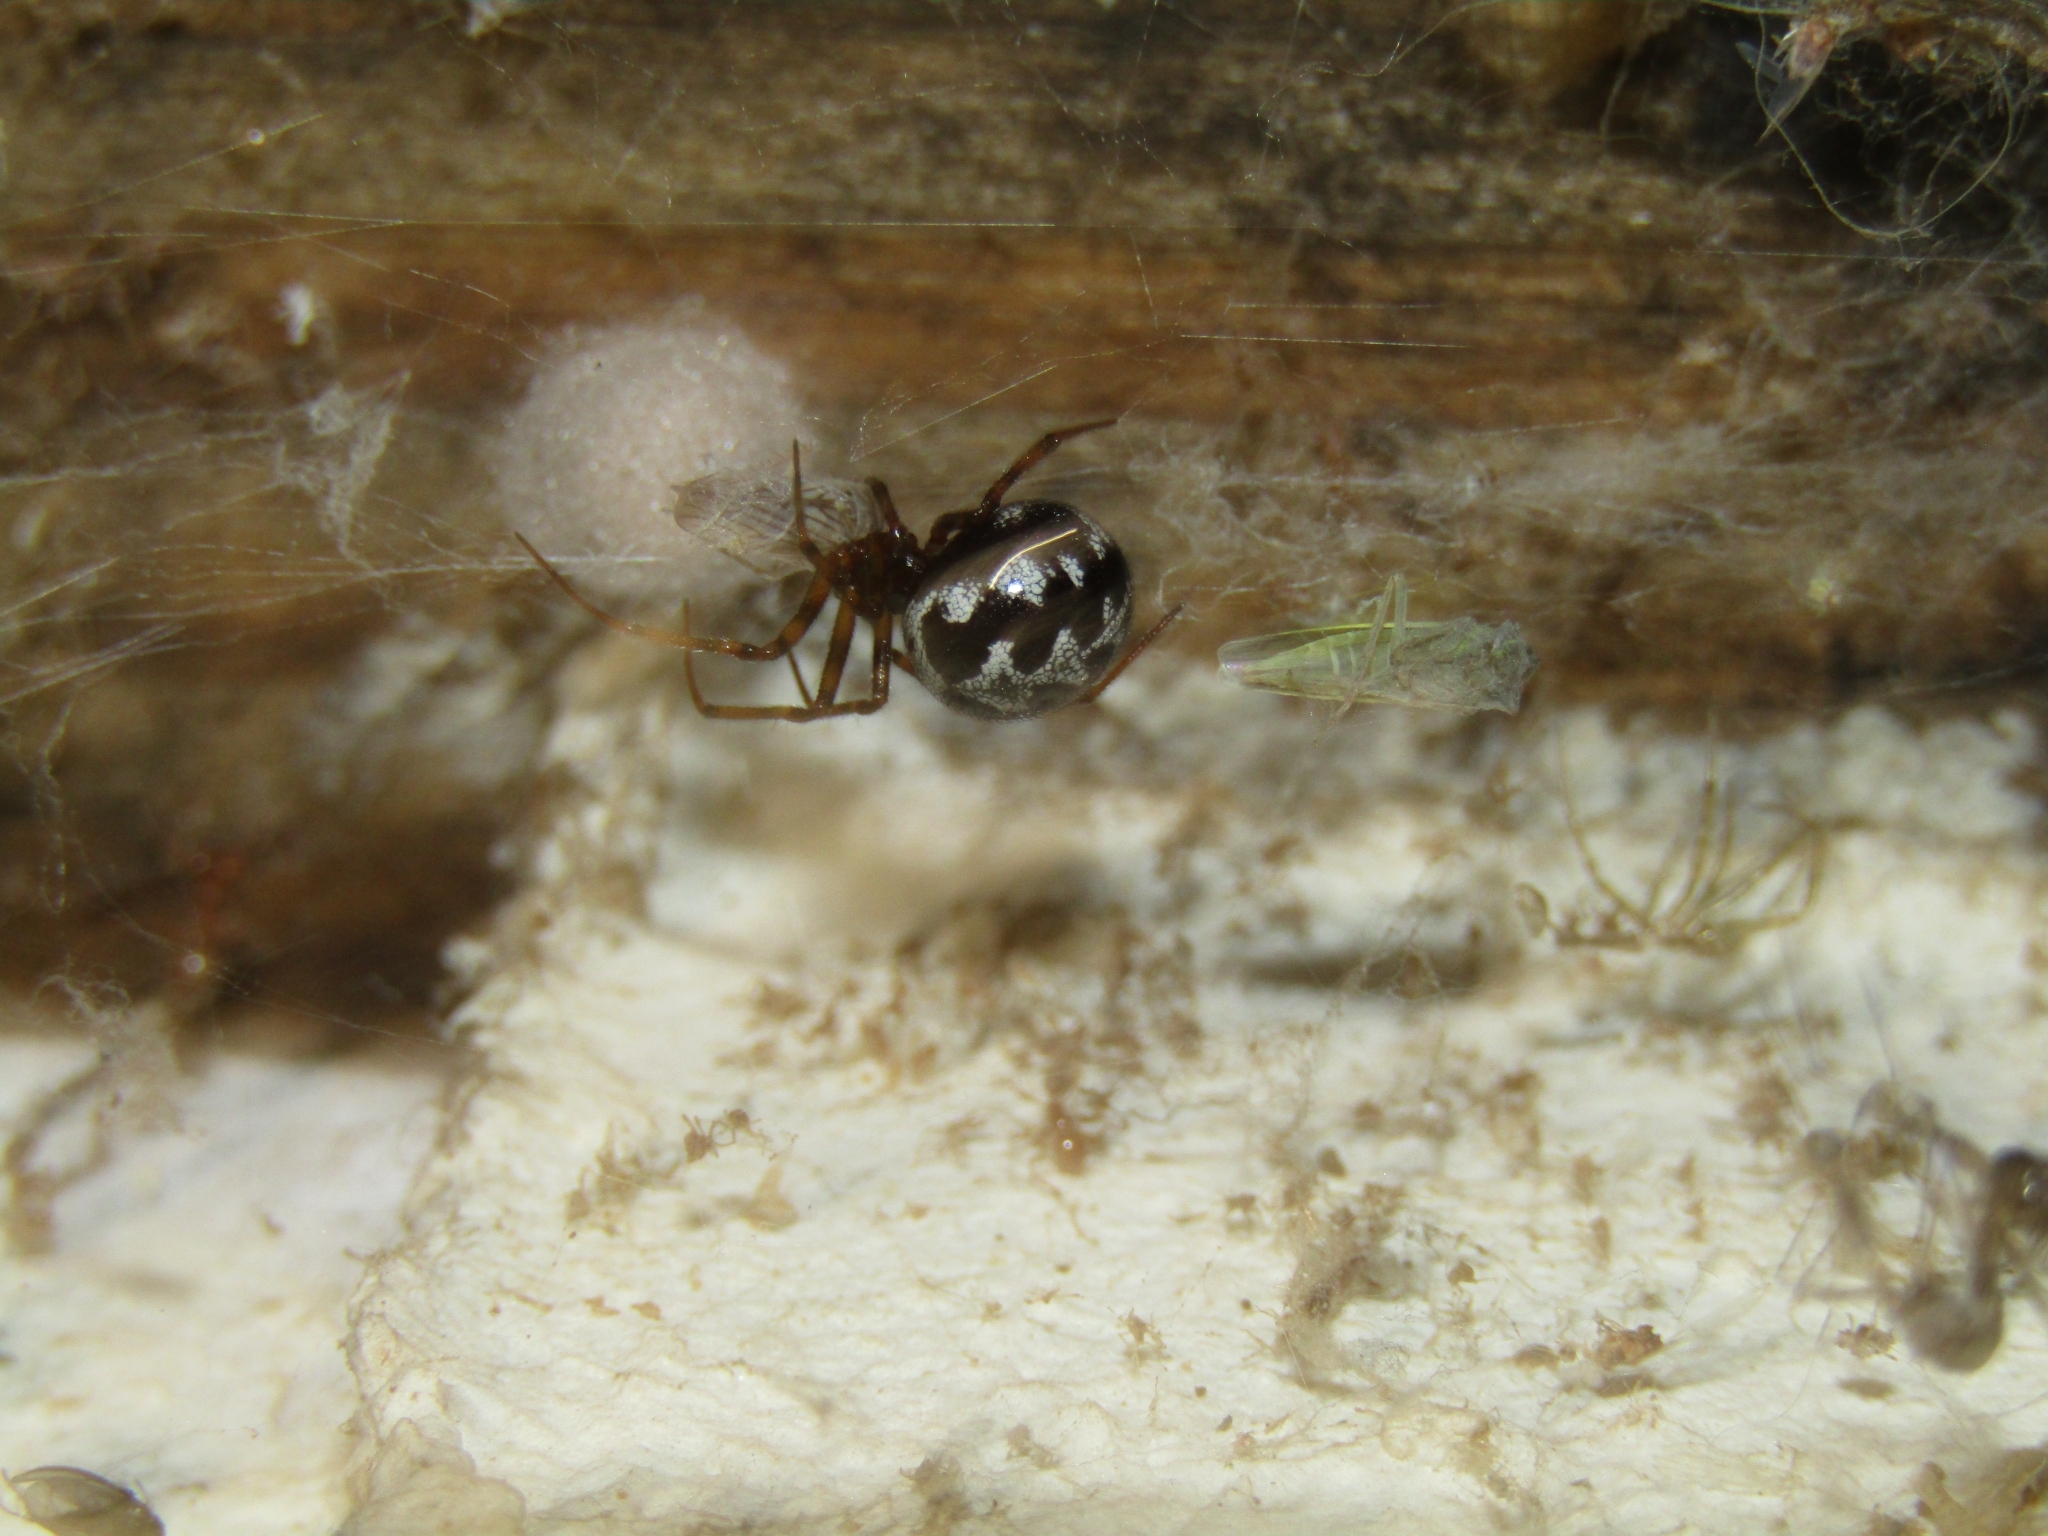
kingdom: Animalia
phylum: Arthropoda
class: Arachnida
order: Araneae
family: Theridiidae
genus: Steatoda
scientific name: Steatoda triangulosa
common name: Triangulate bud spider
